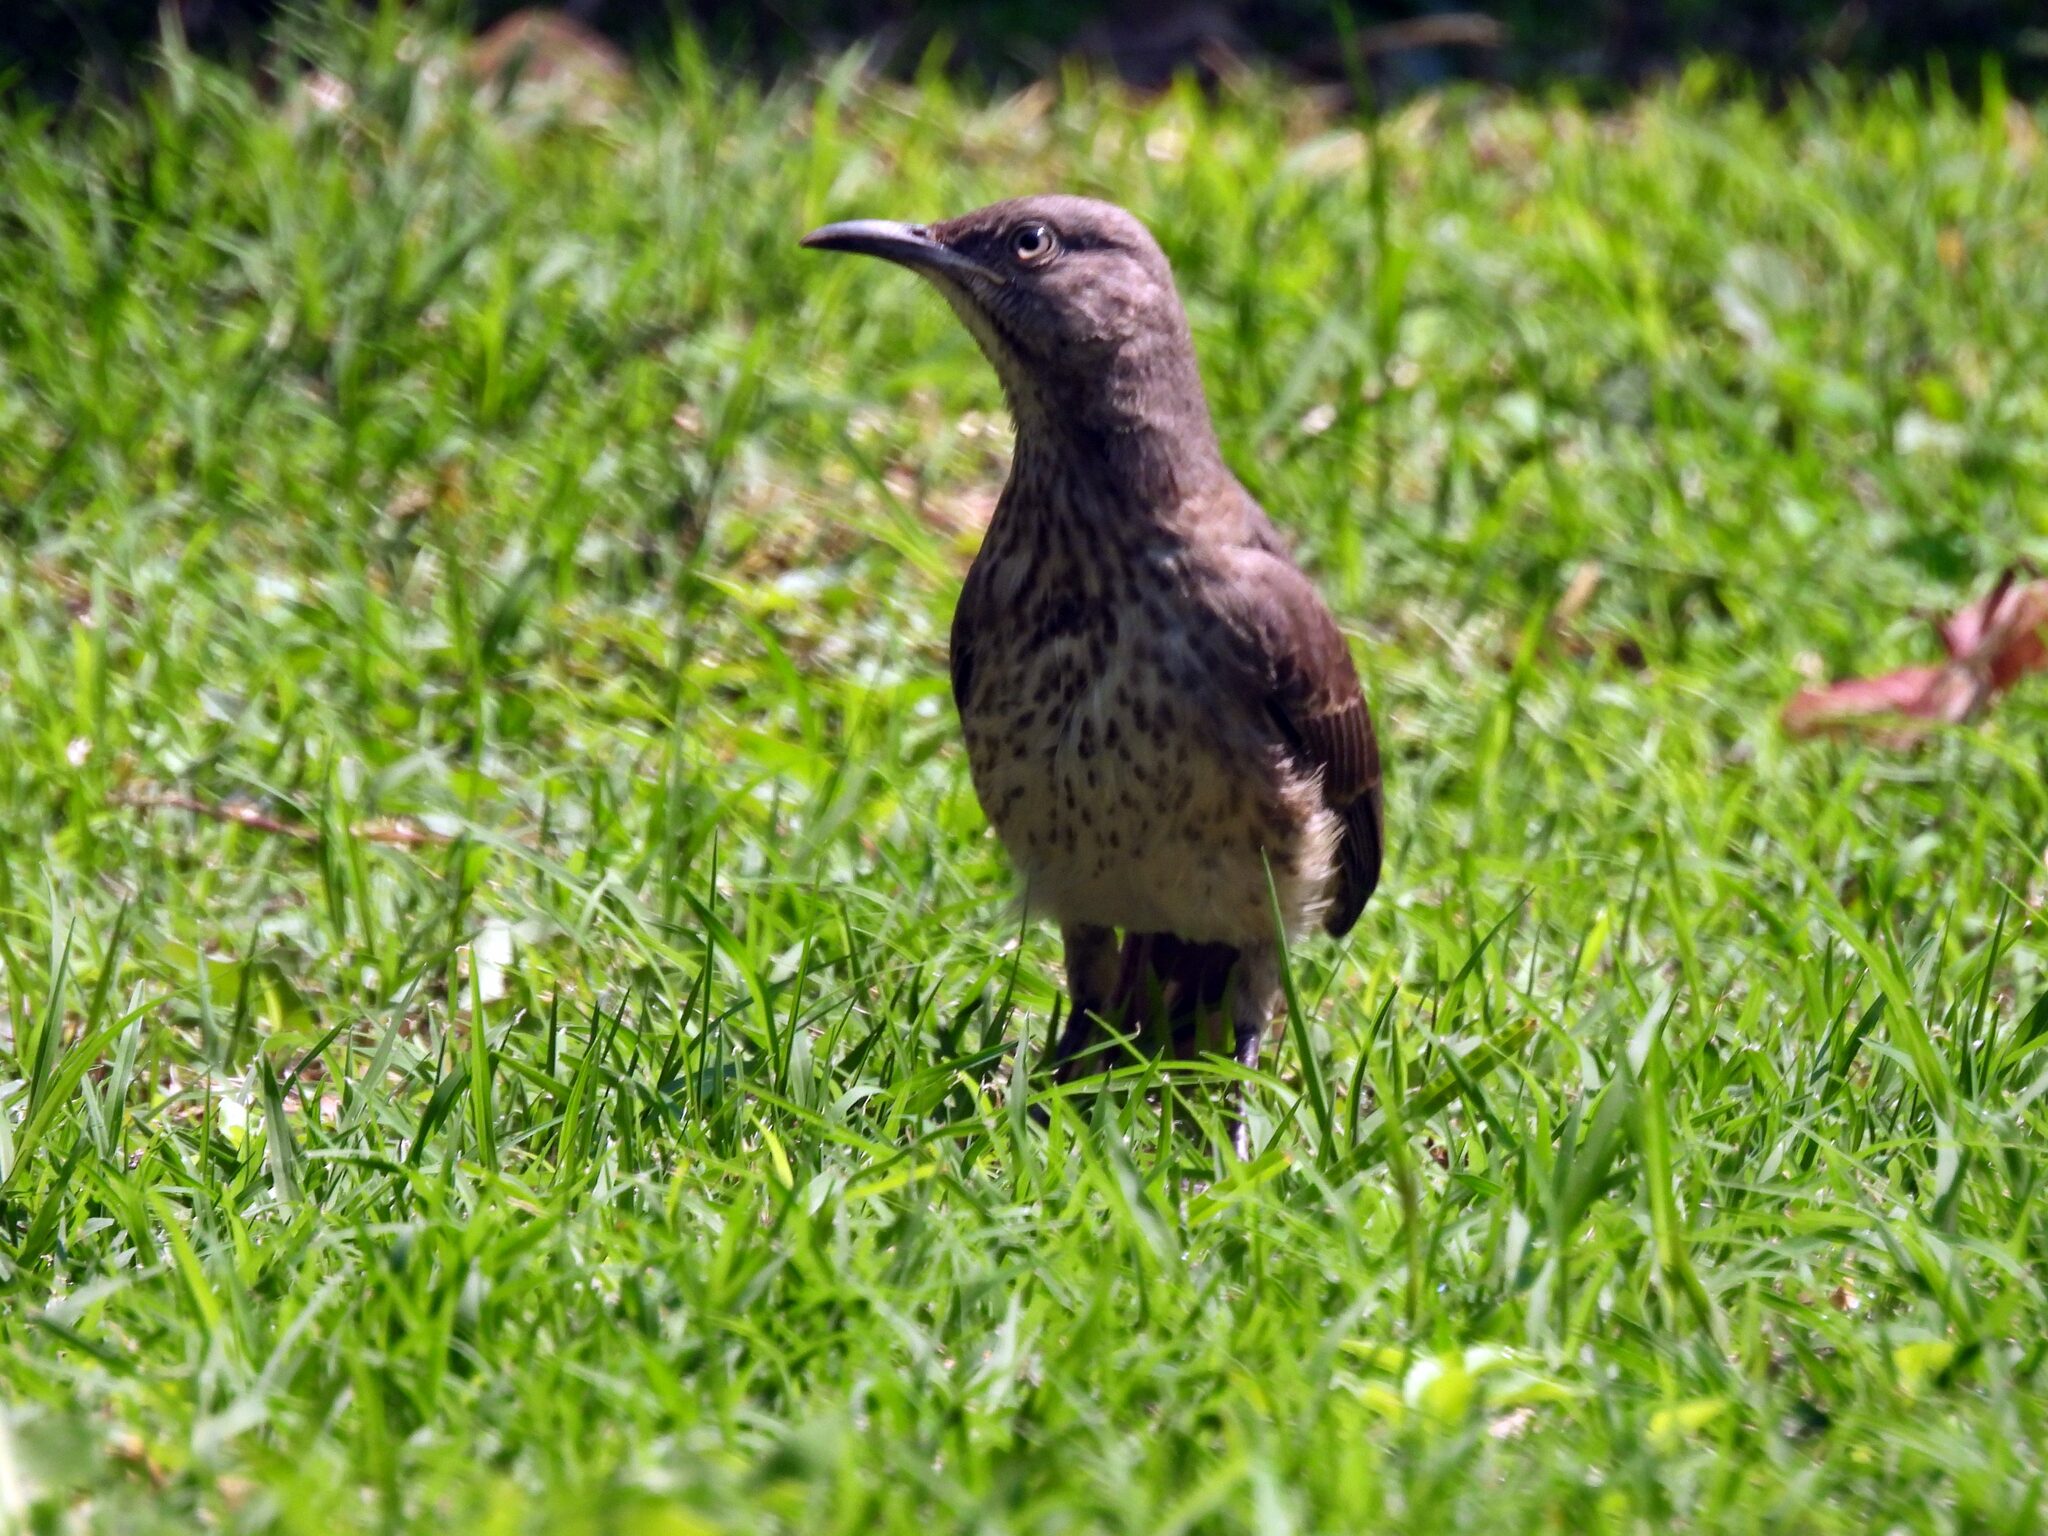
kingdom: Animalia
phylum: Chordata
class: Aves
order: Passeriformes
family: Mimidae
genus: Toxostoma
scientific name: Toxostoma curvirostre
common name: Curve-billed thrasher
